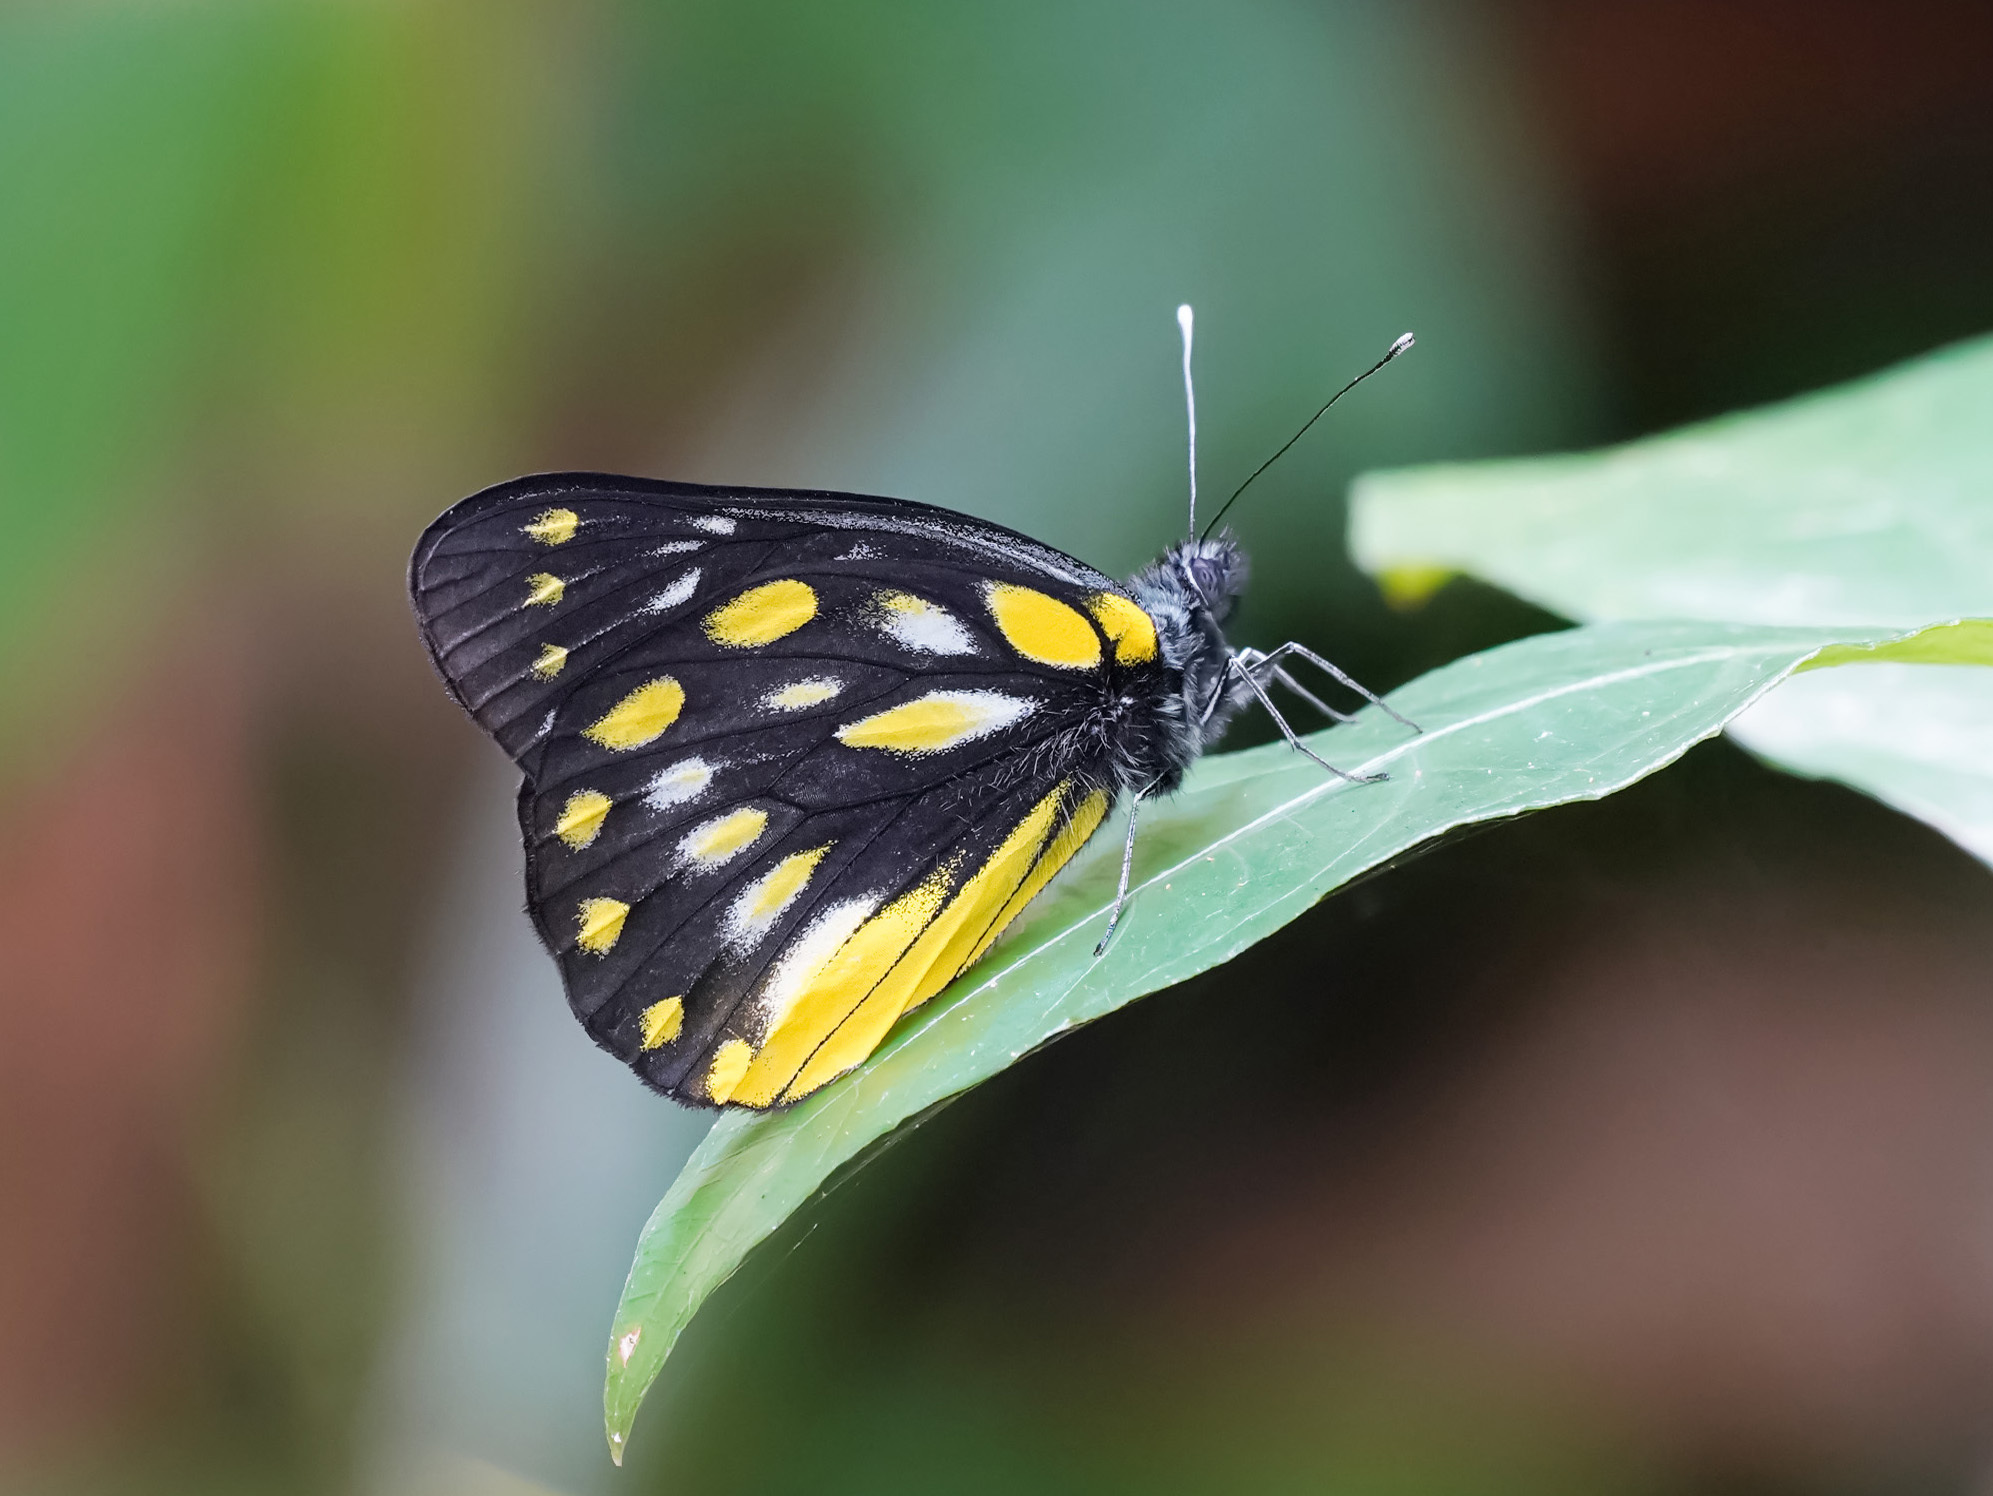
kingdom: Animalia
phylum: Arthropoda
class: Insecta
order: Lepidoptera
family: Pieridae
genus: Delias
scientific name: Delias berinda
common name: Dark jezebel
